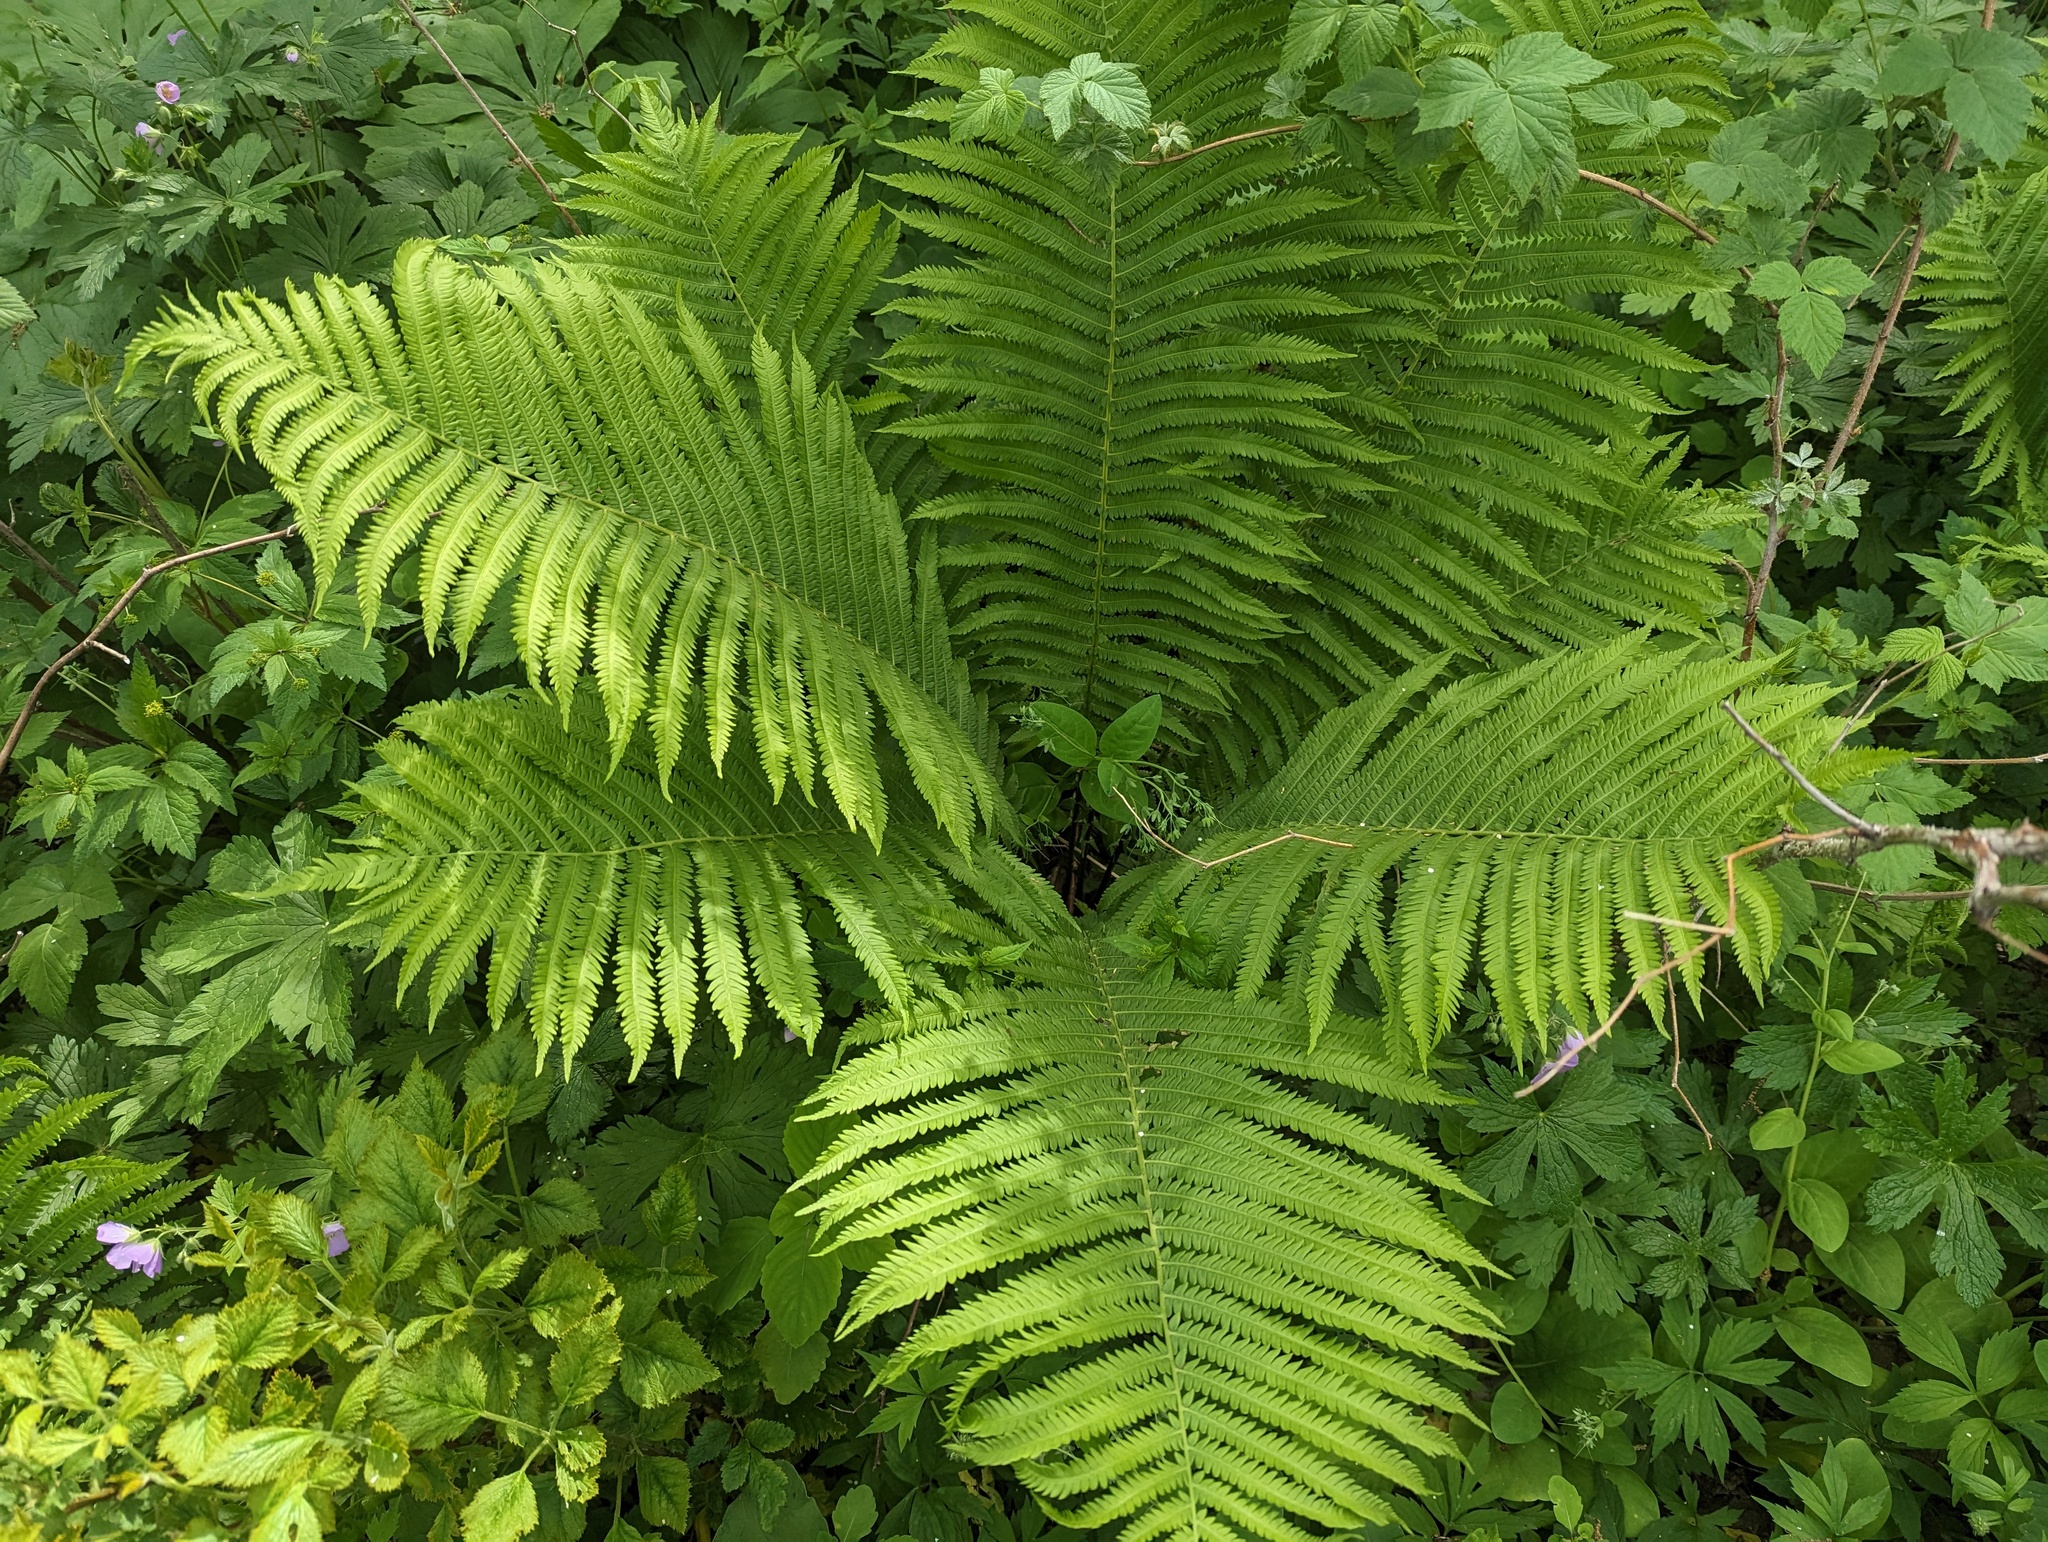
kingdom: Plantae
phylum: Tracheophyta
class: Polypodiopsida
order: Polypodiales
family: Onocleaceae
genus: Matteuccia
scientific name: Matteuccia struthiopteris
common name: Ostrich fern
